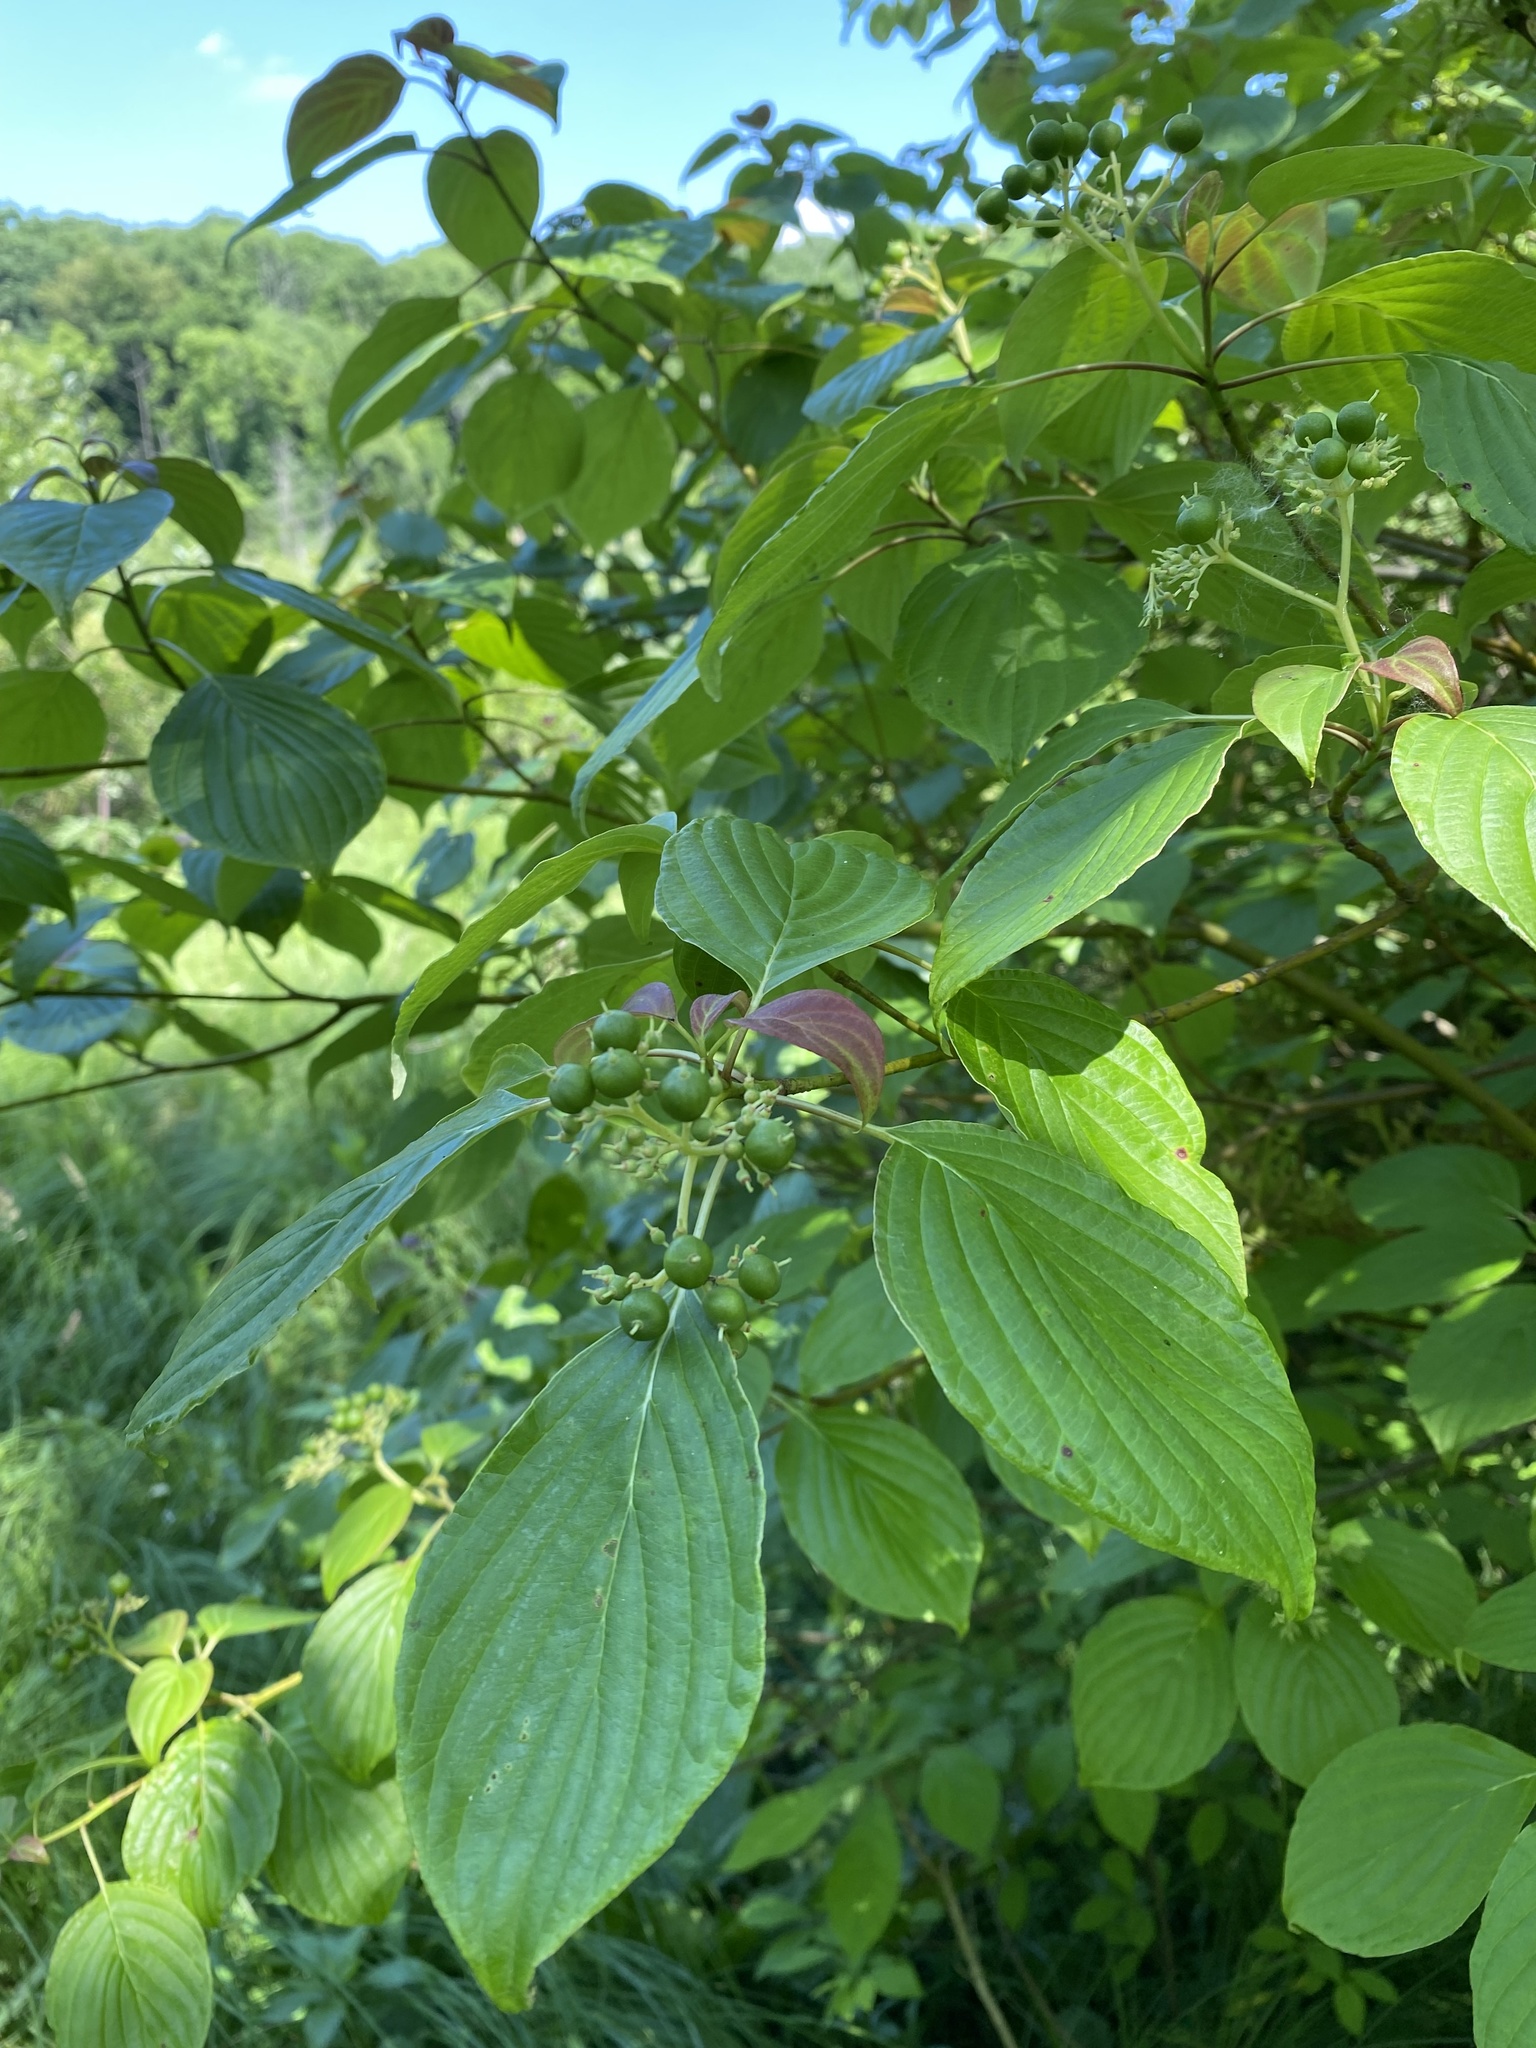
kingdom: Plantae
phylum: Tracheophyta
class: Magnoliopsida
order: Cornales
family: Cornaceae
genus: Cornus
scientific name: Cornus alternifolia
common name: Pagoda dogwood
